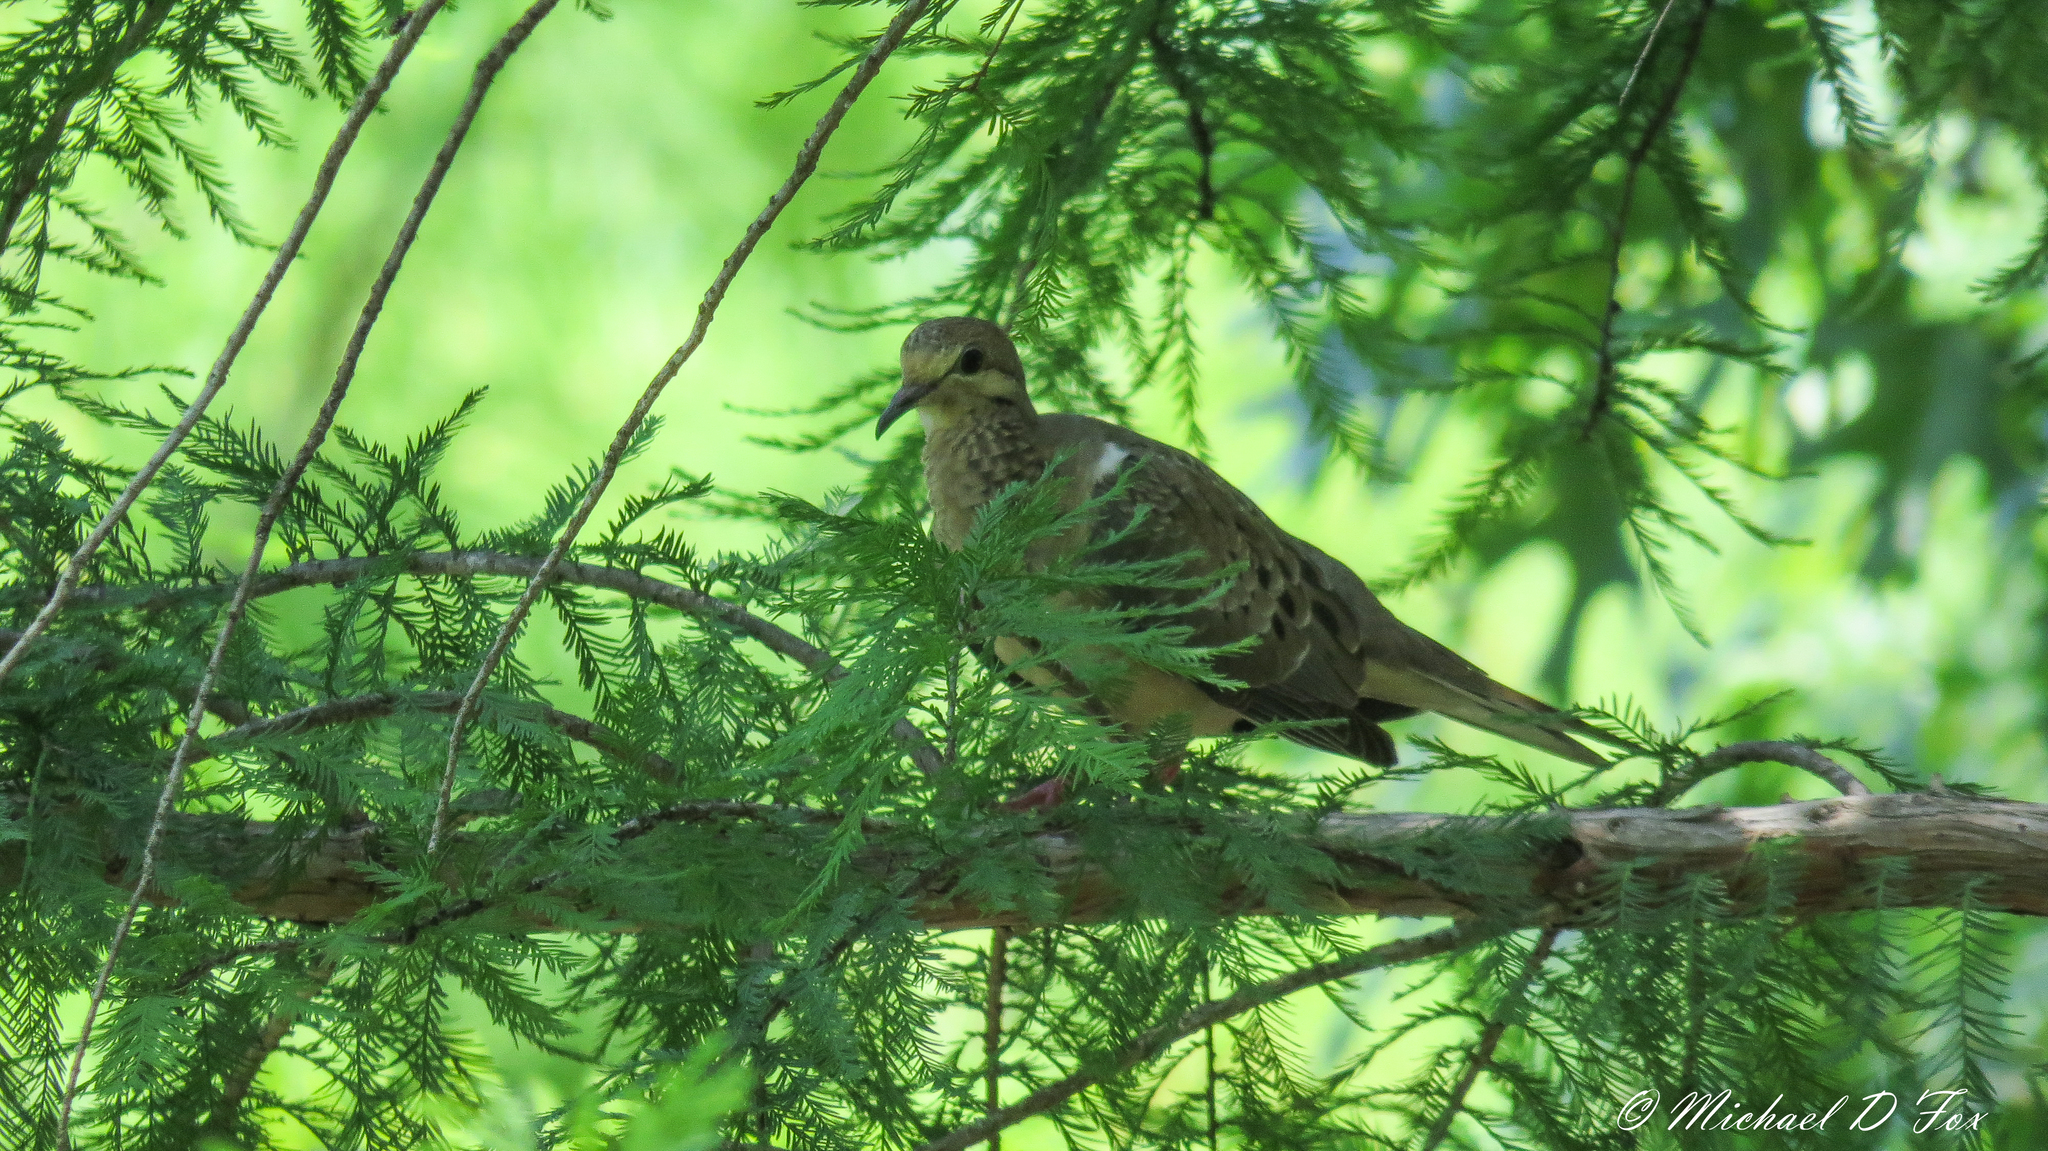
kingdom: Animalia
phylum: Chordata
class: Aves
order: Columbiformes
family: Columbidae
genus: Zenaida
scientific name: Zenaida macroura
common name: Mourning dove
